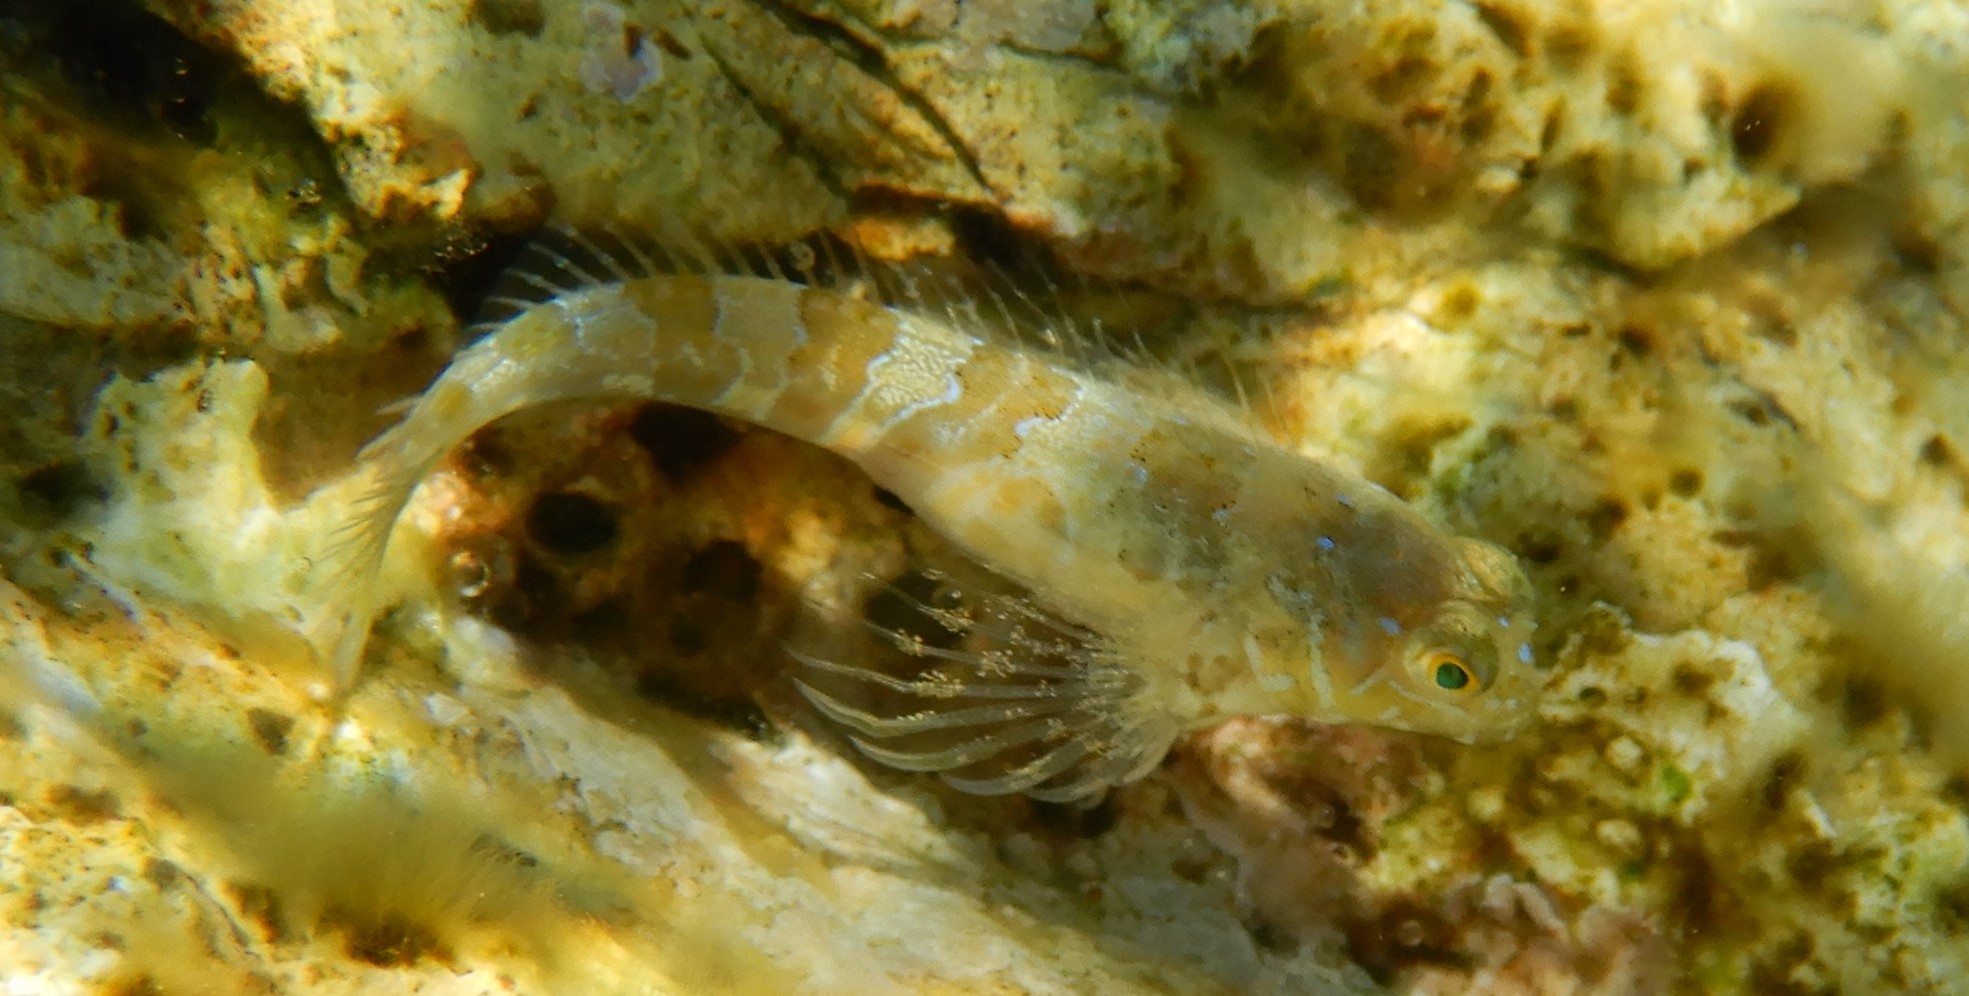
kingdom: Animalia
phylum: Chordata
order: Perciformes
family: Blenniidae
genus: Aidablennius
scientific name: Aidablennius sphynx
